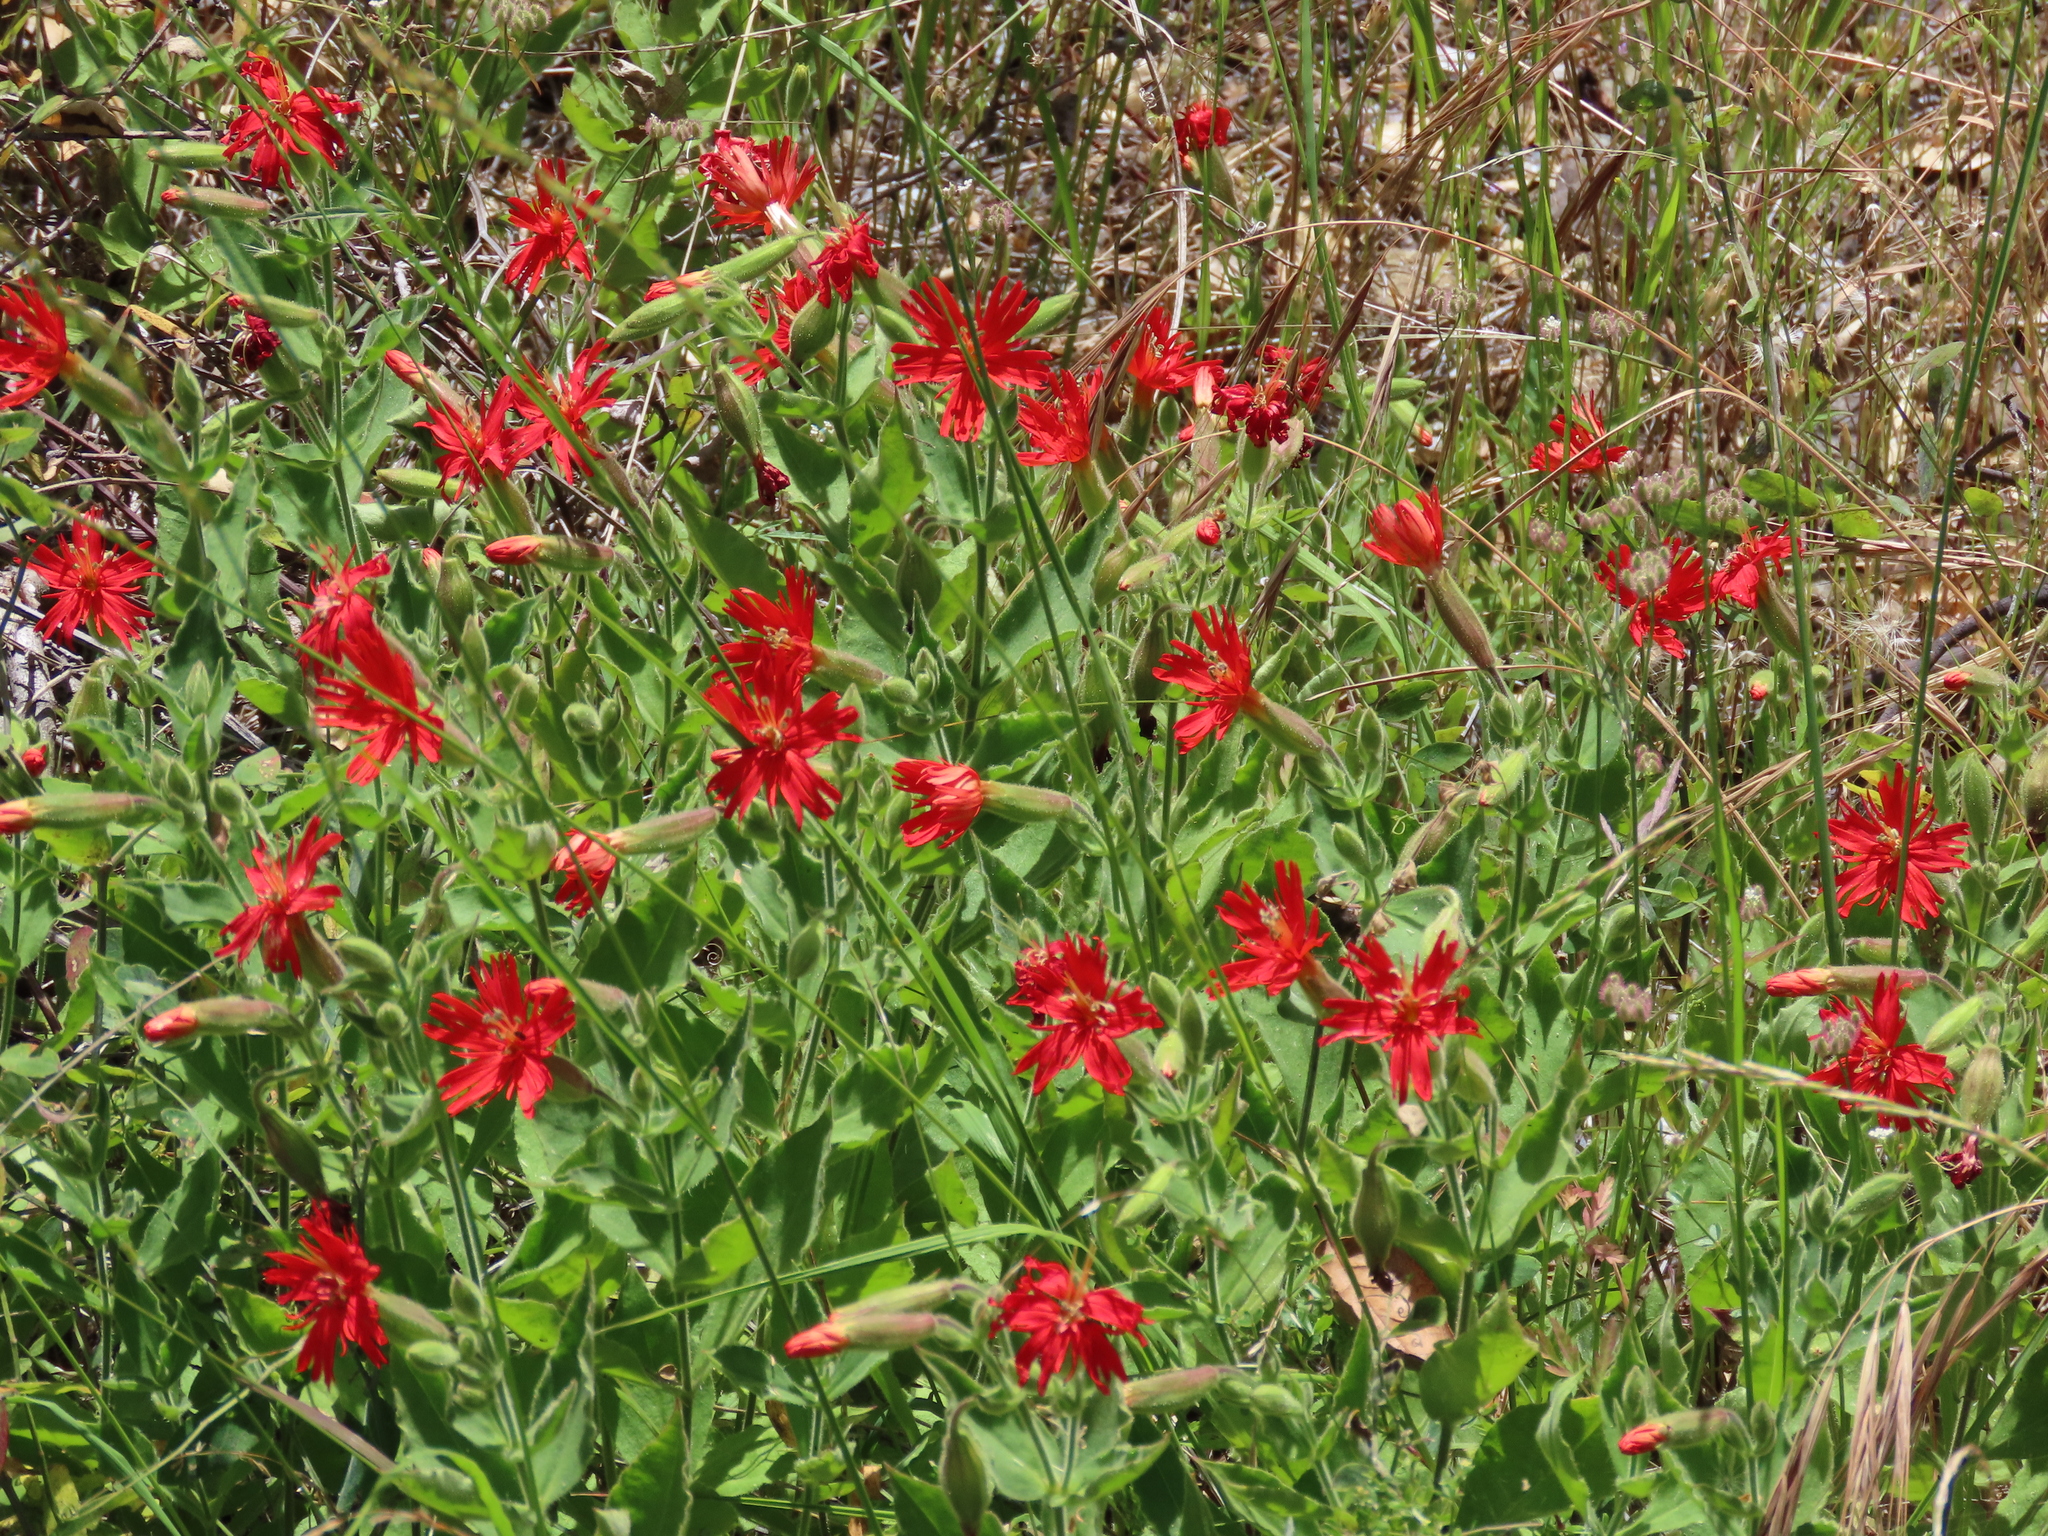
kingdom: Plantae
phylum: Tracheophyta
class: Magnoliopsida
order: Caryophyllales
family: Caryophyllaceae
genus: Silene
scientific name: Silene laciniata
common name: Indian-pink
